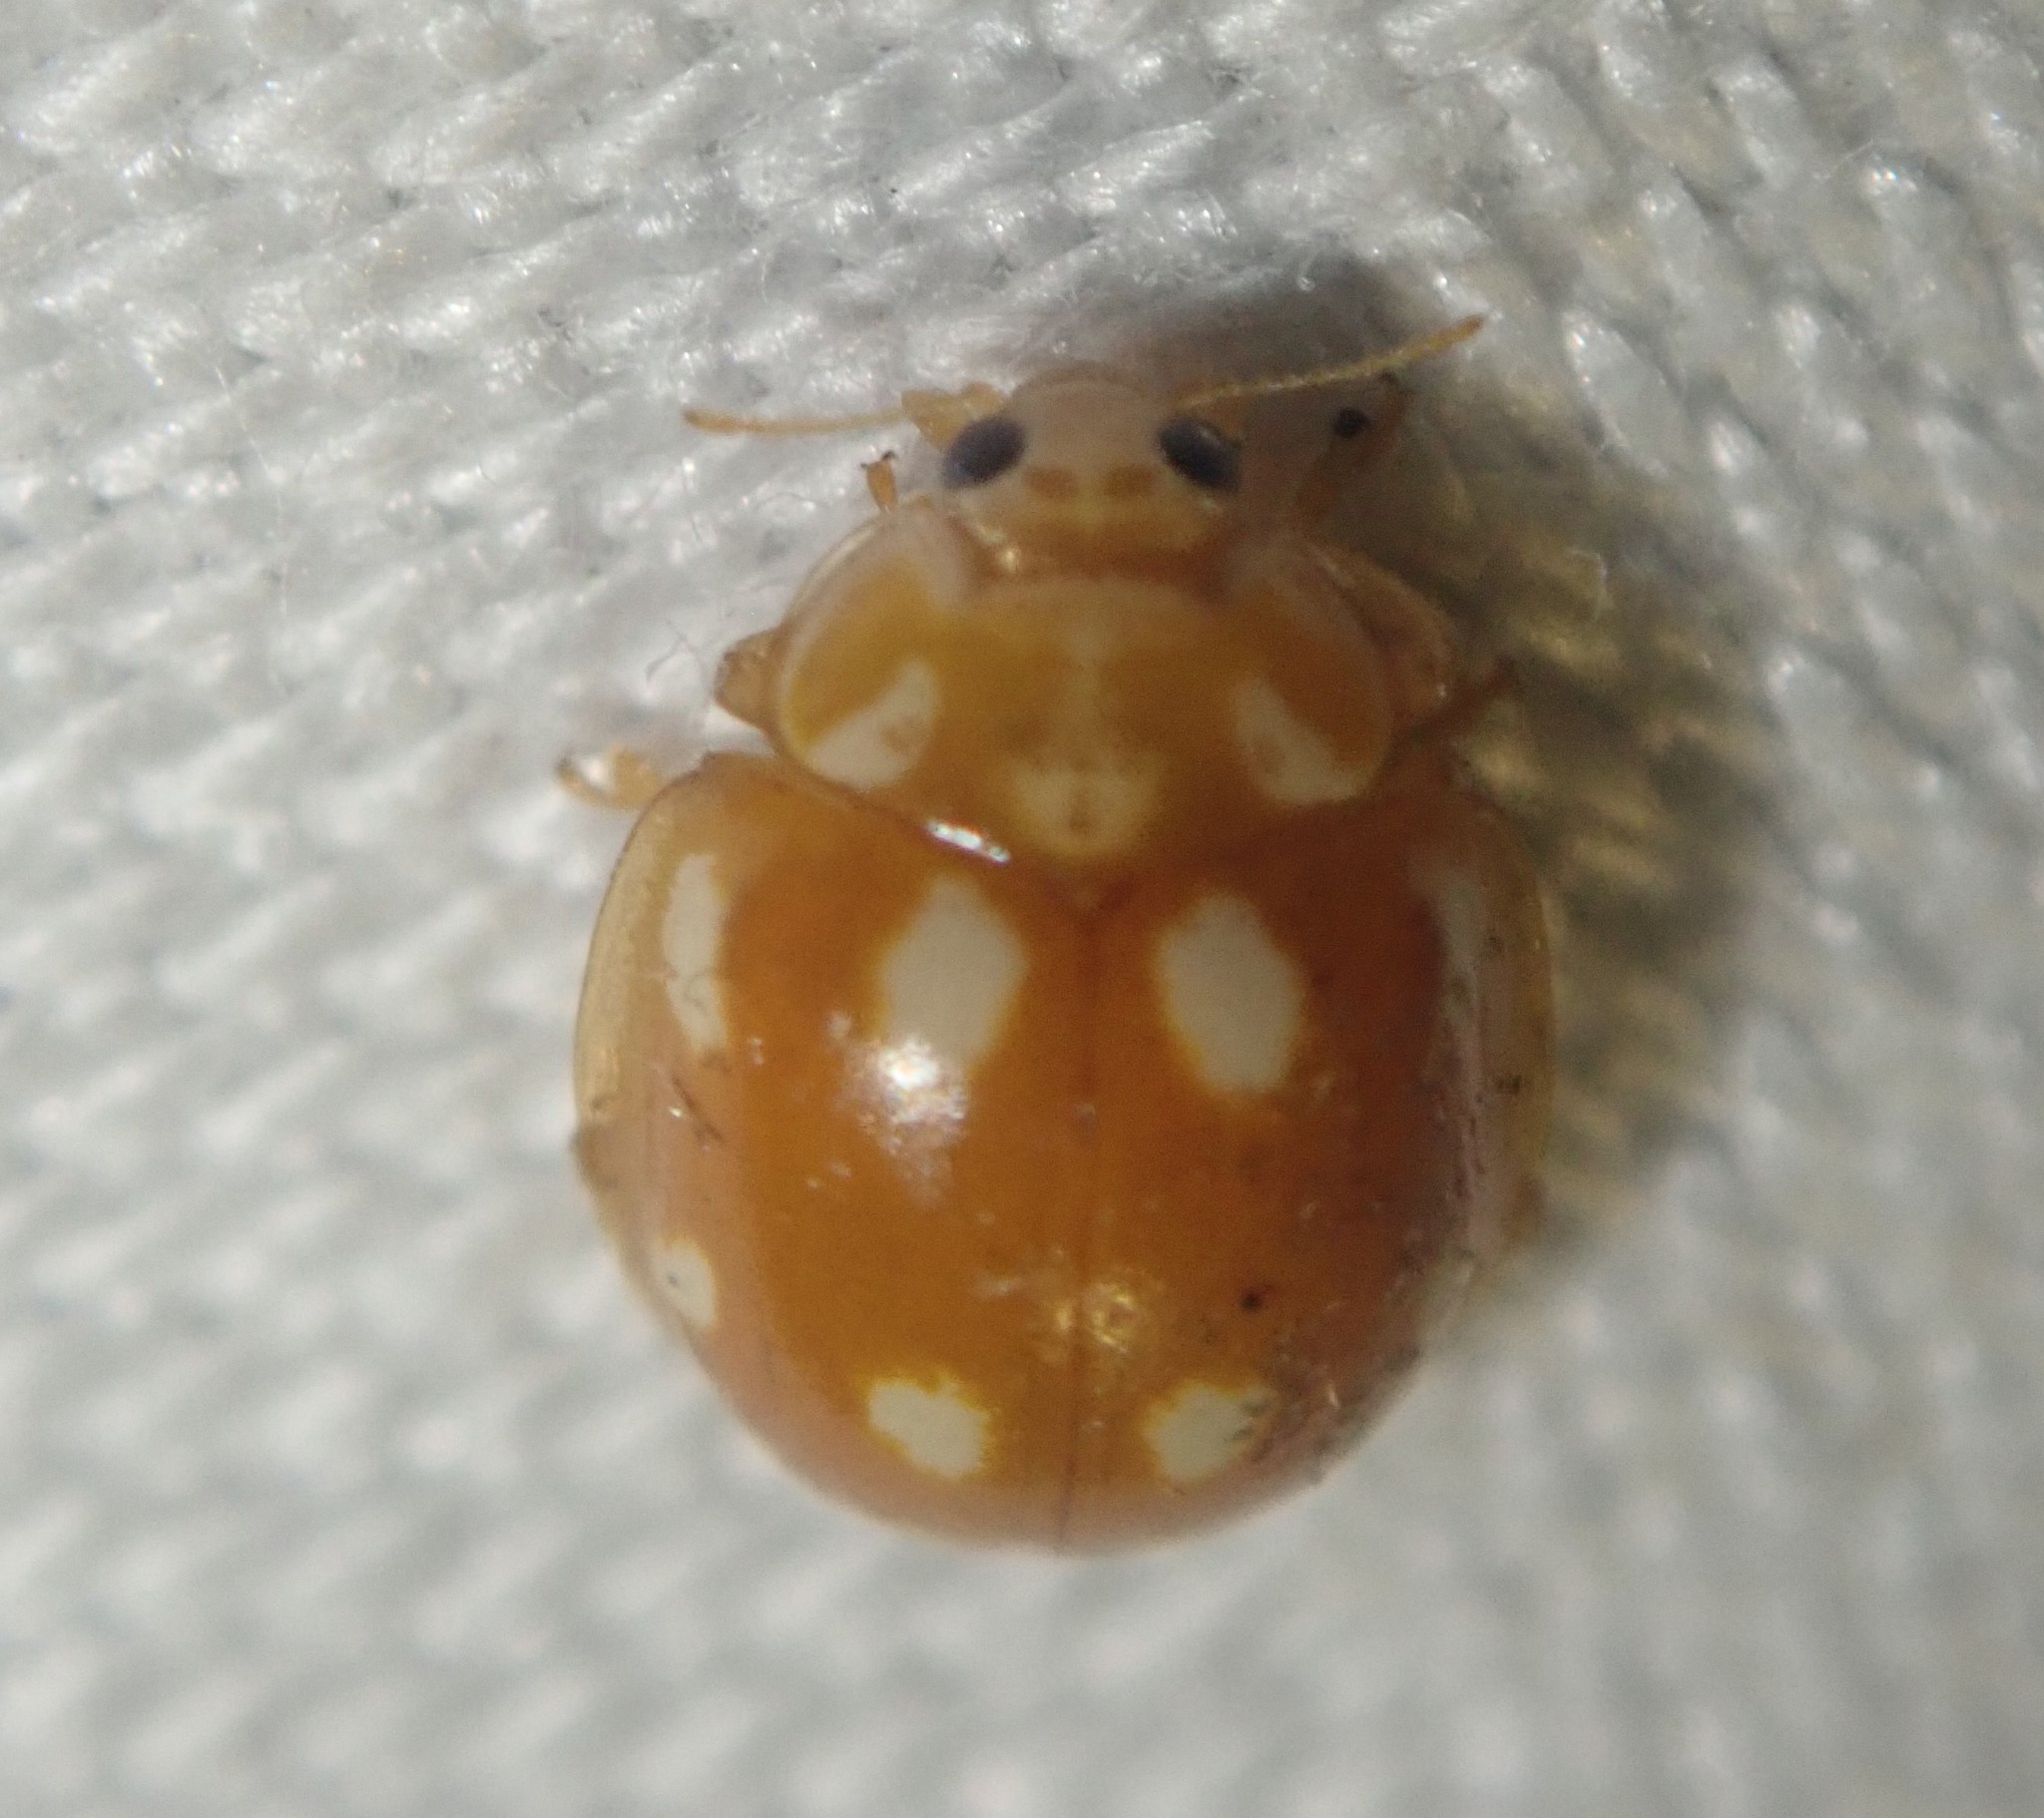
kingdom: Animalia
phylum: Arthropoda
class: Insecta
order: Coleoptera
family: Coccinellidae
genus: Calvia
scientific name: Calvia decemguttata
